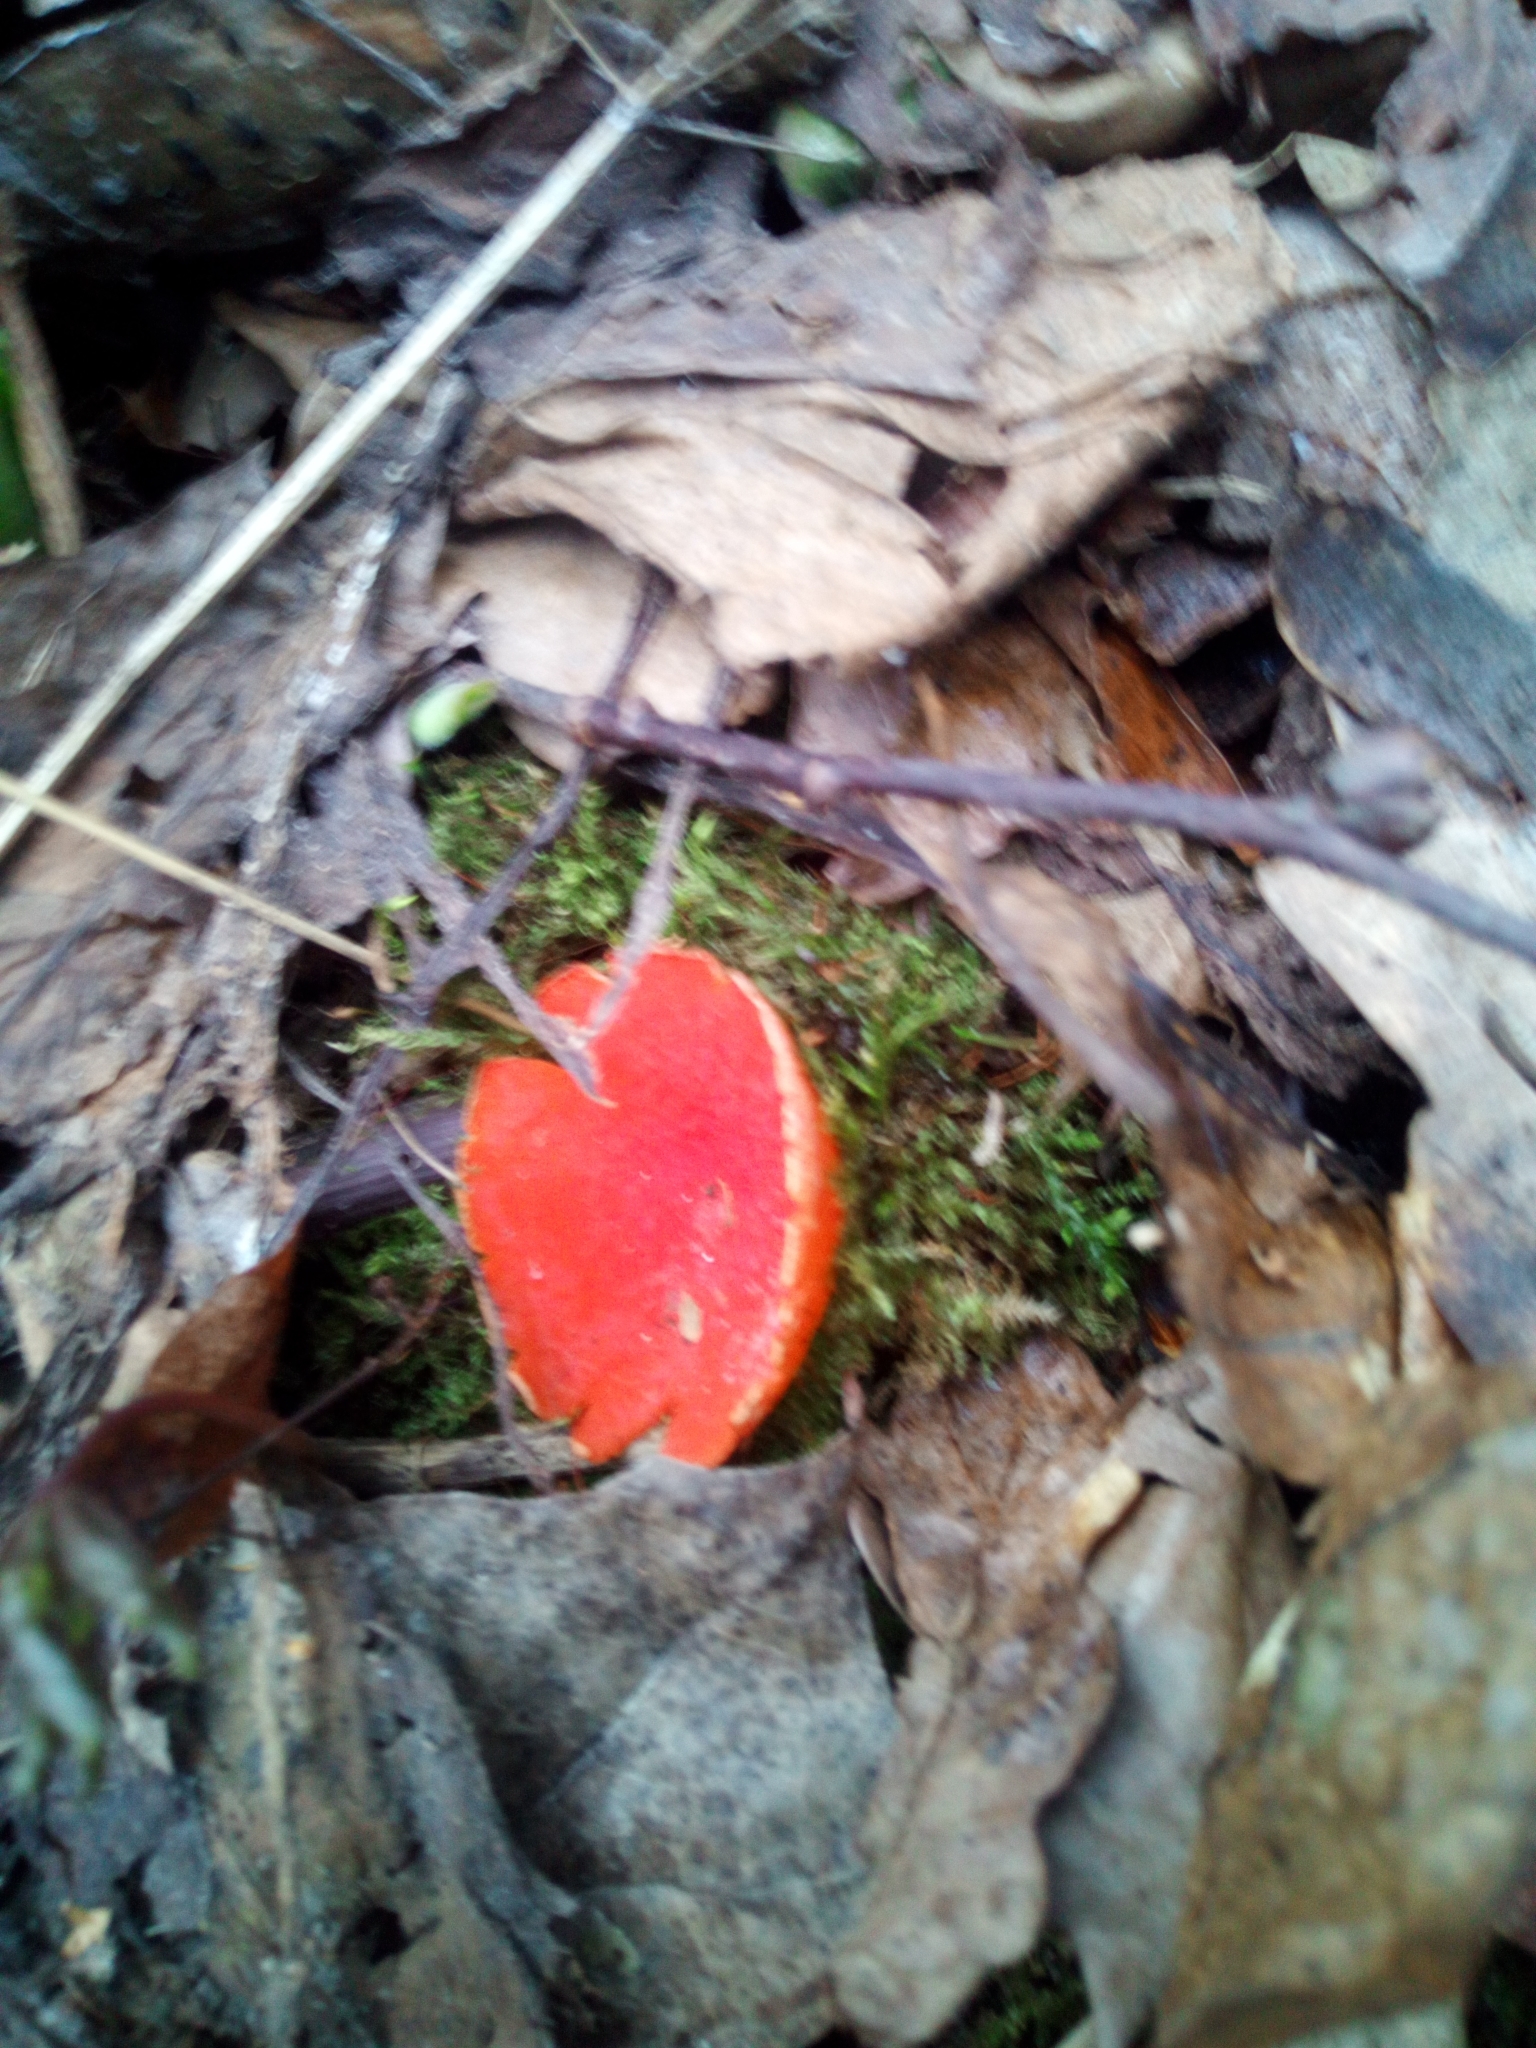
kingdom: Fungi
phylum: Ascomycota
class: Pezizomycetes
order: Pezizales
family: Sarcoscyphaceae
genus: Sarcoscypha
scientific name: Sarcoscypha
